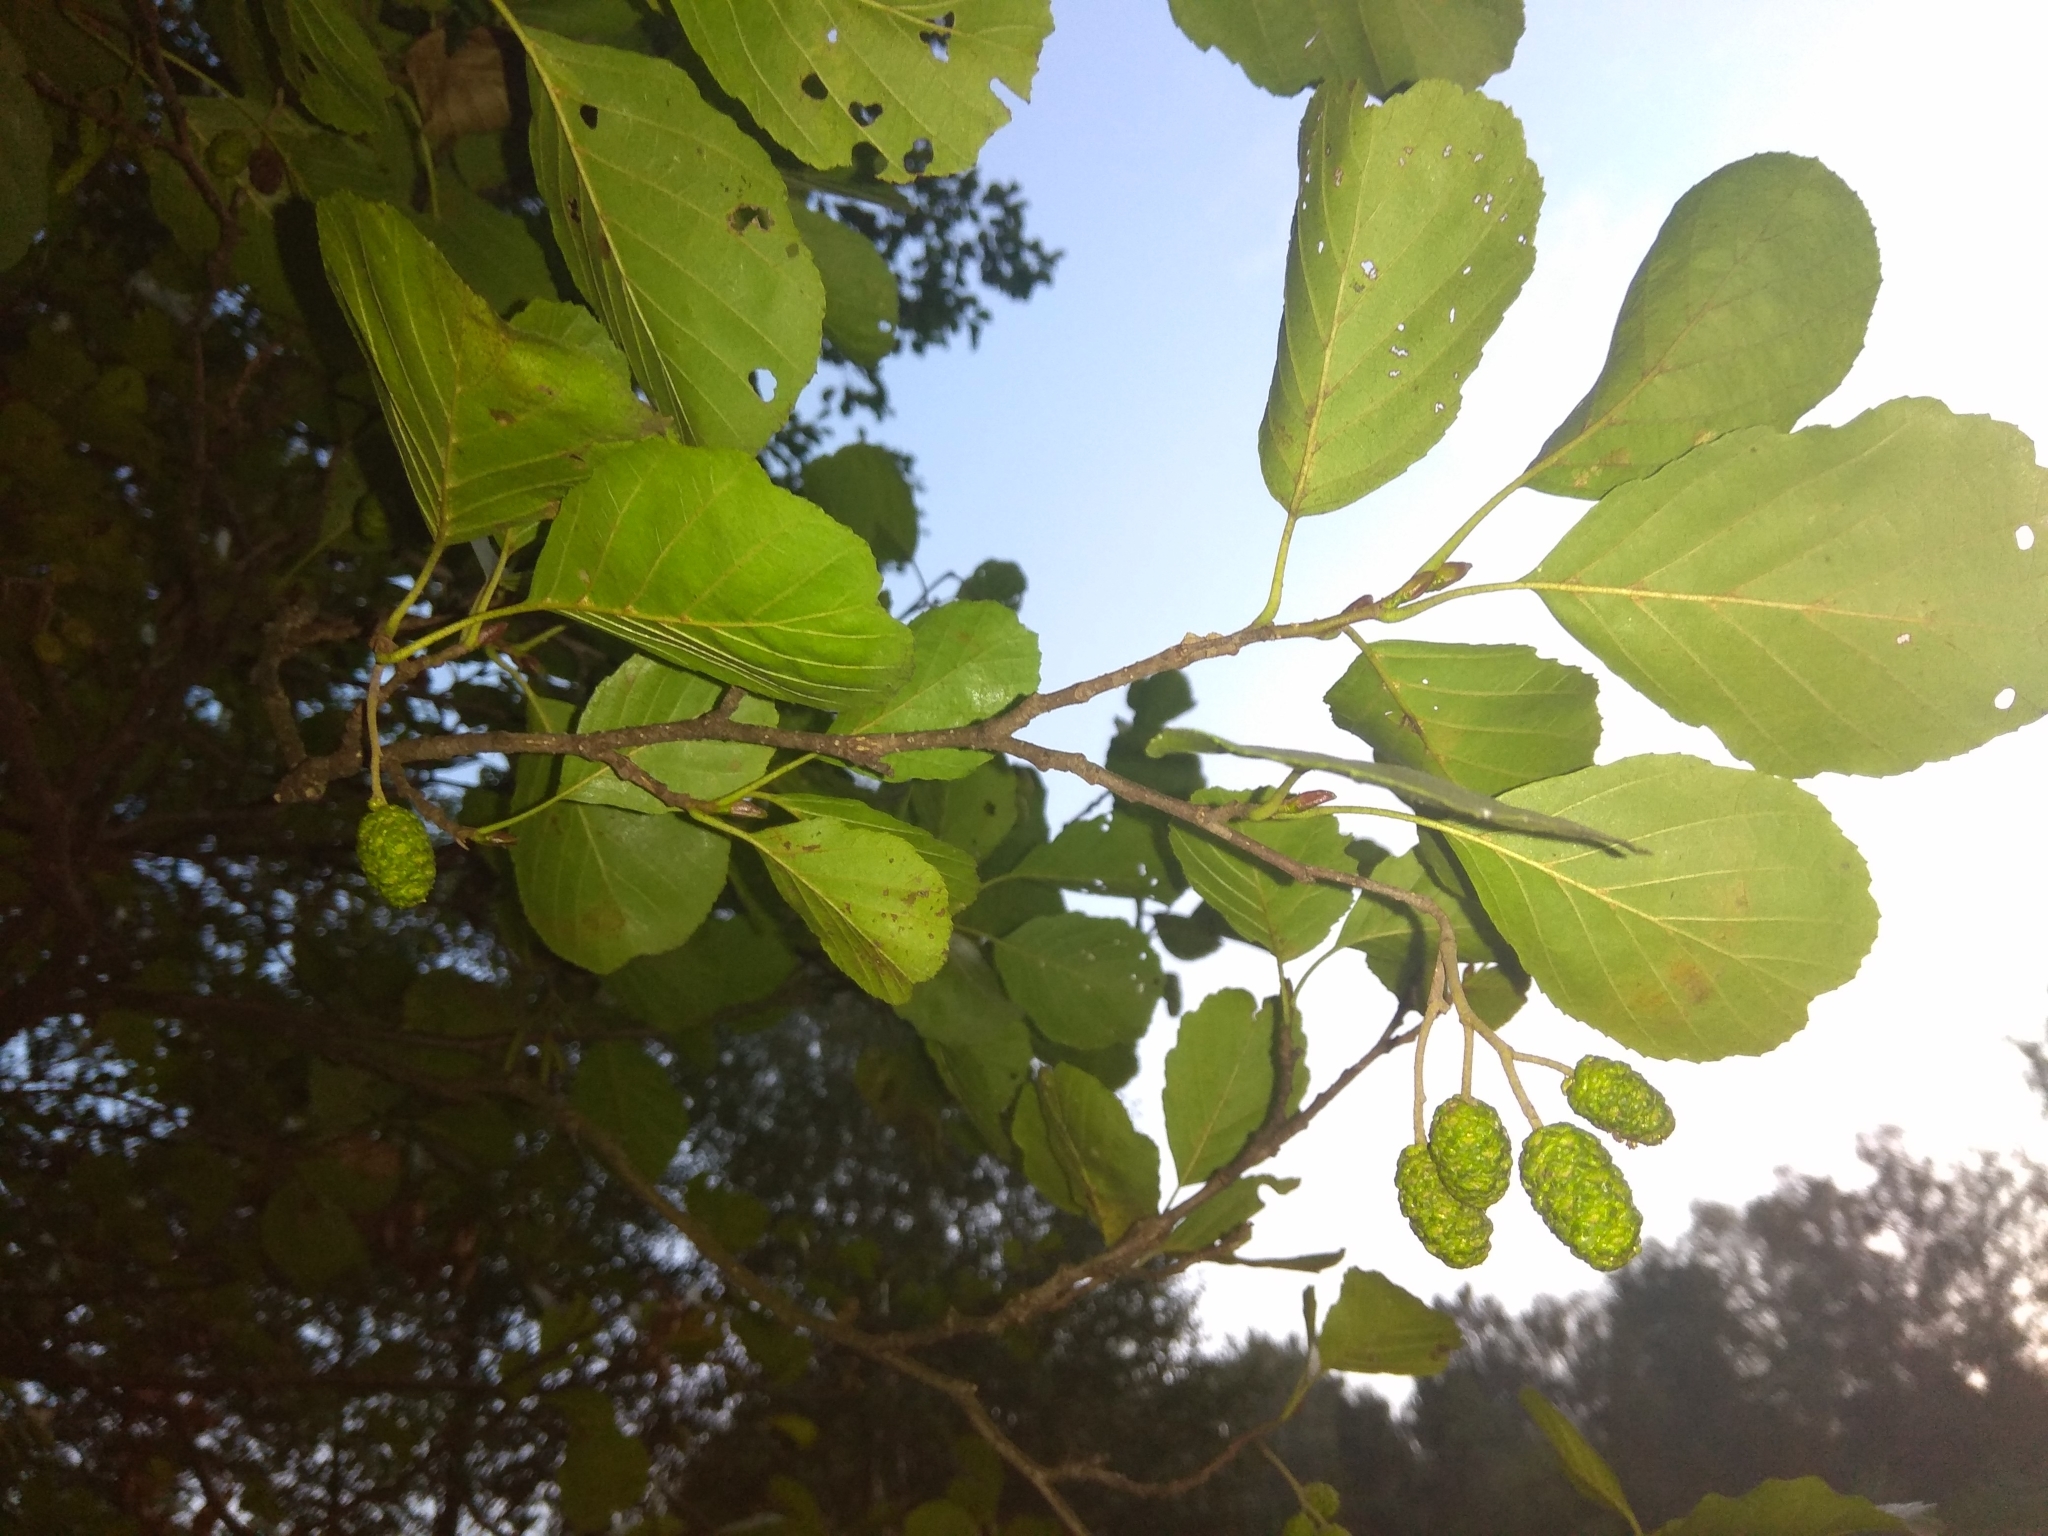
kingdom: Plantae
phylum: Tracheophyta
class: Magnoliopsida
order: Fagales
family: Betulaceae
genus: Alnus
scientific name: Alnus glutinosa
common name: Black alder
